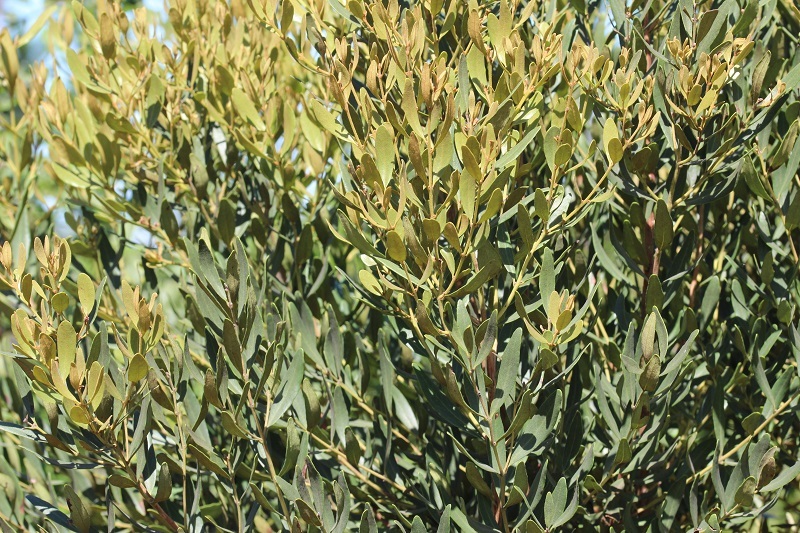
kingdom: Plantae
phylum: Tracheophyta
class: Magnoliopsida
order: Ericales
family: Ebenaceae
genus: Euclea
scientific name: Euclea crispa
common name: Blue guarri
